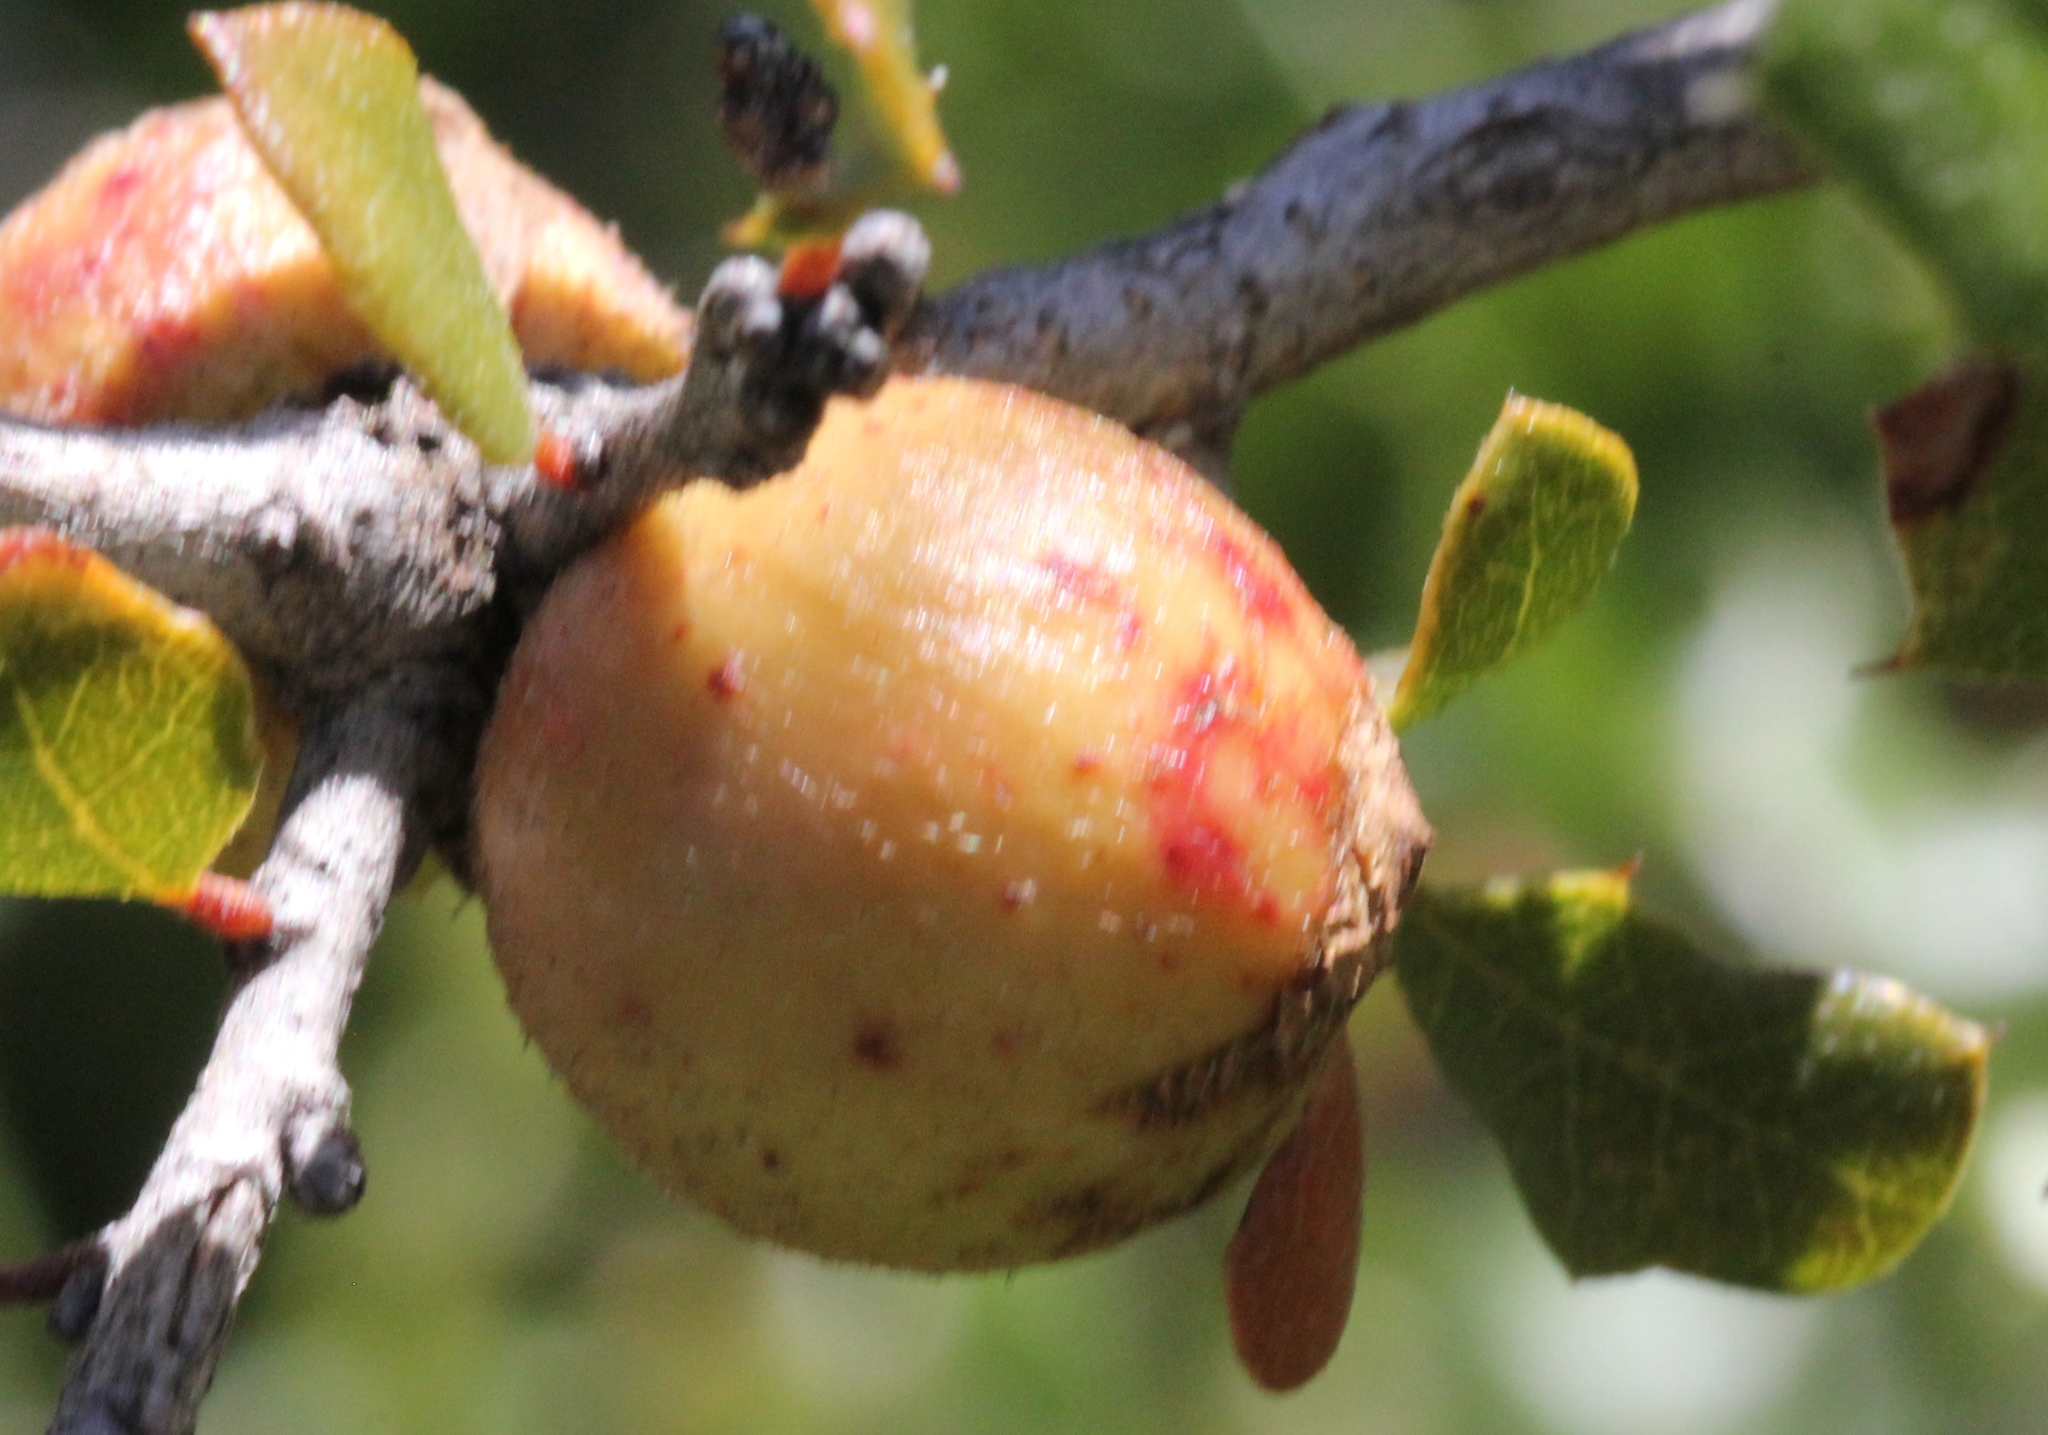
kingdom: Animalia
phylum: Arthropoda
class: Insecta
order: Hymenoptera
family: Cynipidae
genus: Andricus
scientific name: Andricus quercuscalifornicus
